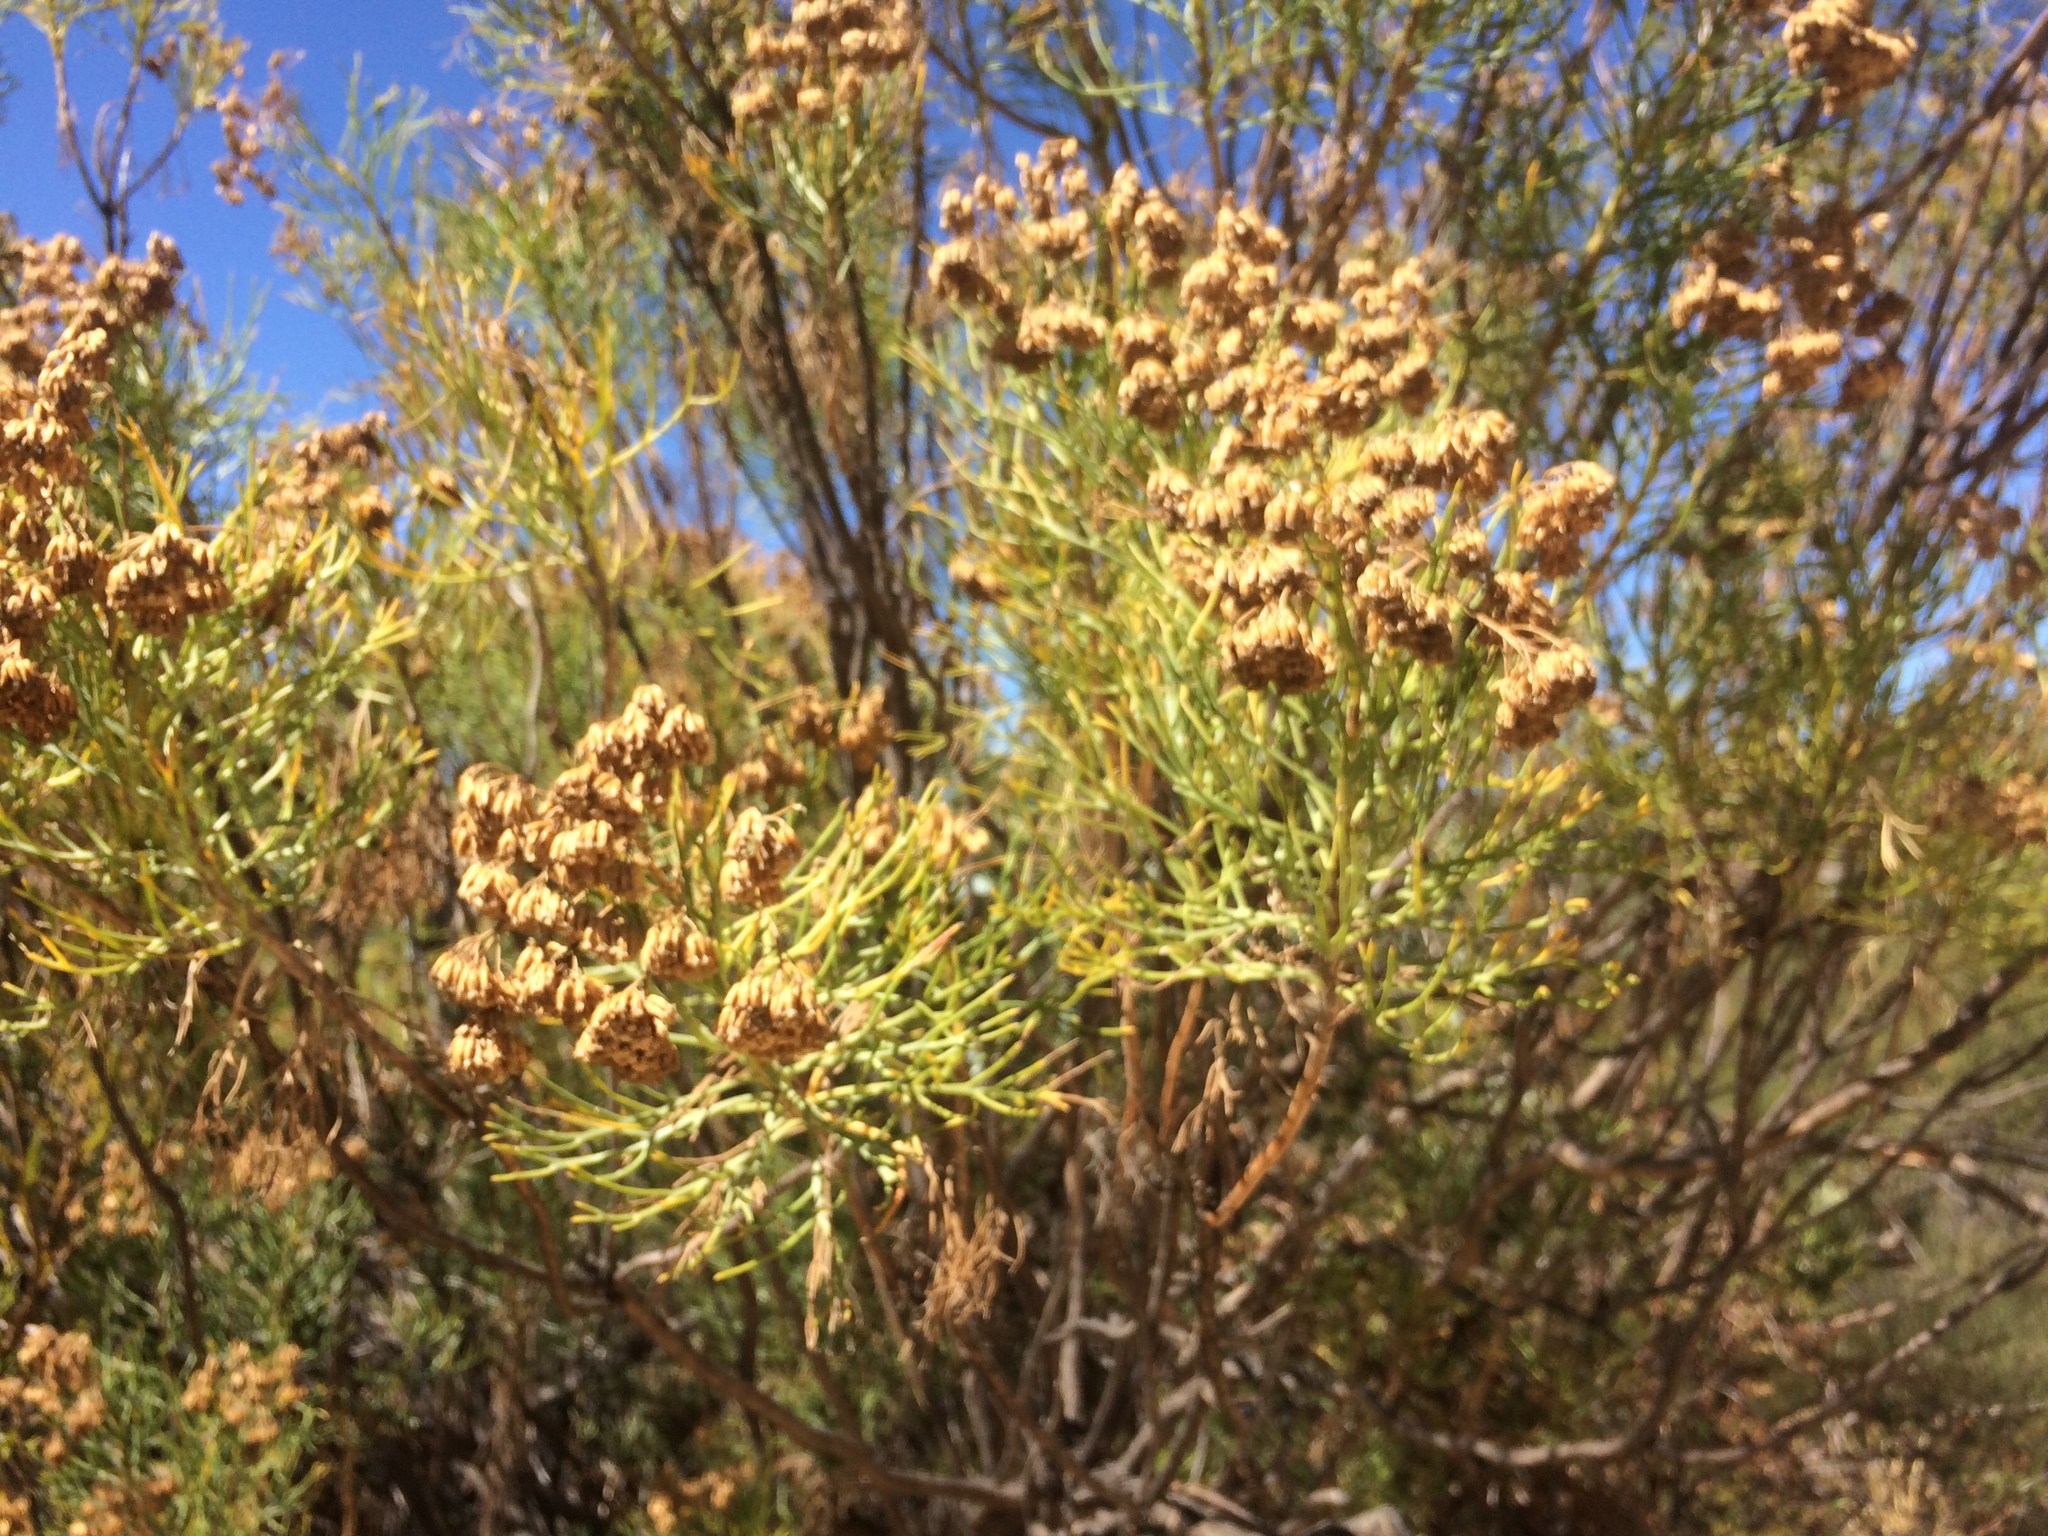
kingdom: Plantae
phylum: Tracheophyta
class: Magnoliopsida
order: Asterales
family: Asteraceae
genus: Hymenolepis
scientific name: Hymenolepis crithmifolia
